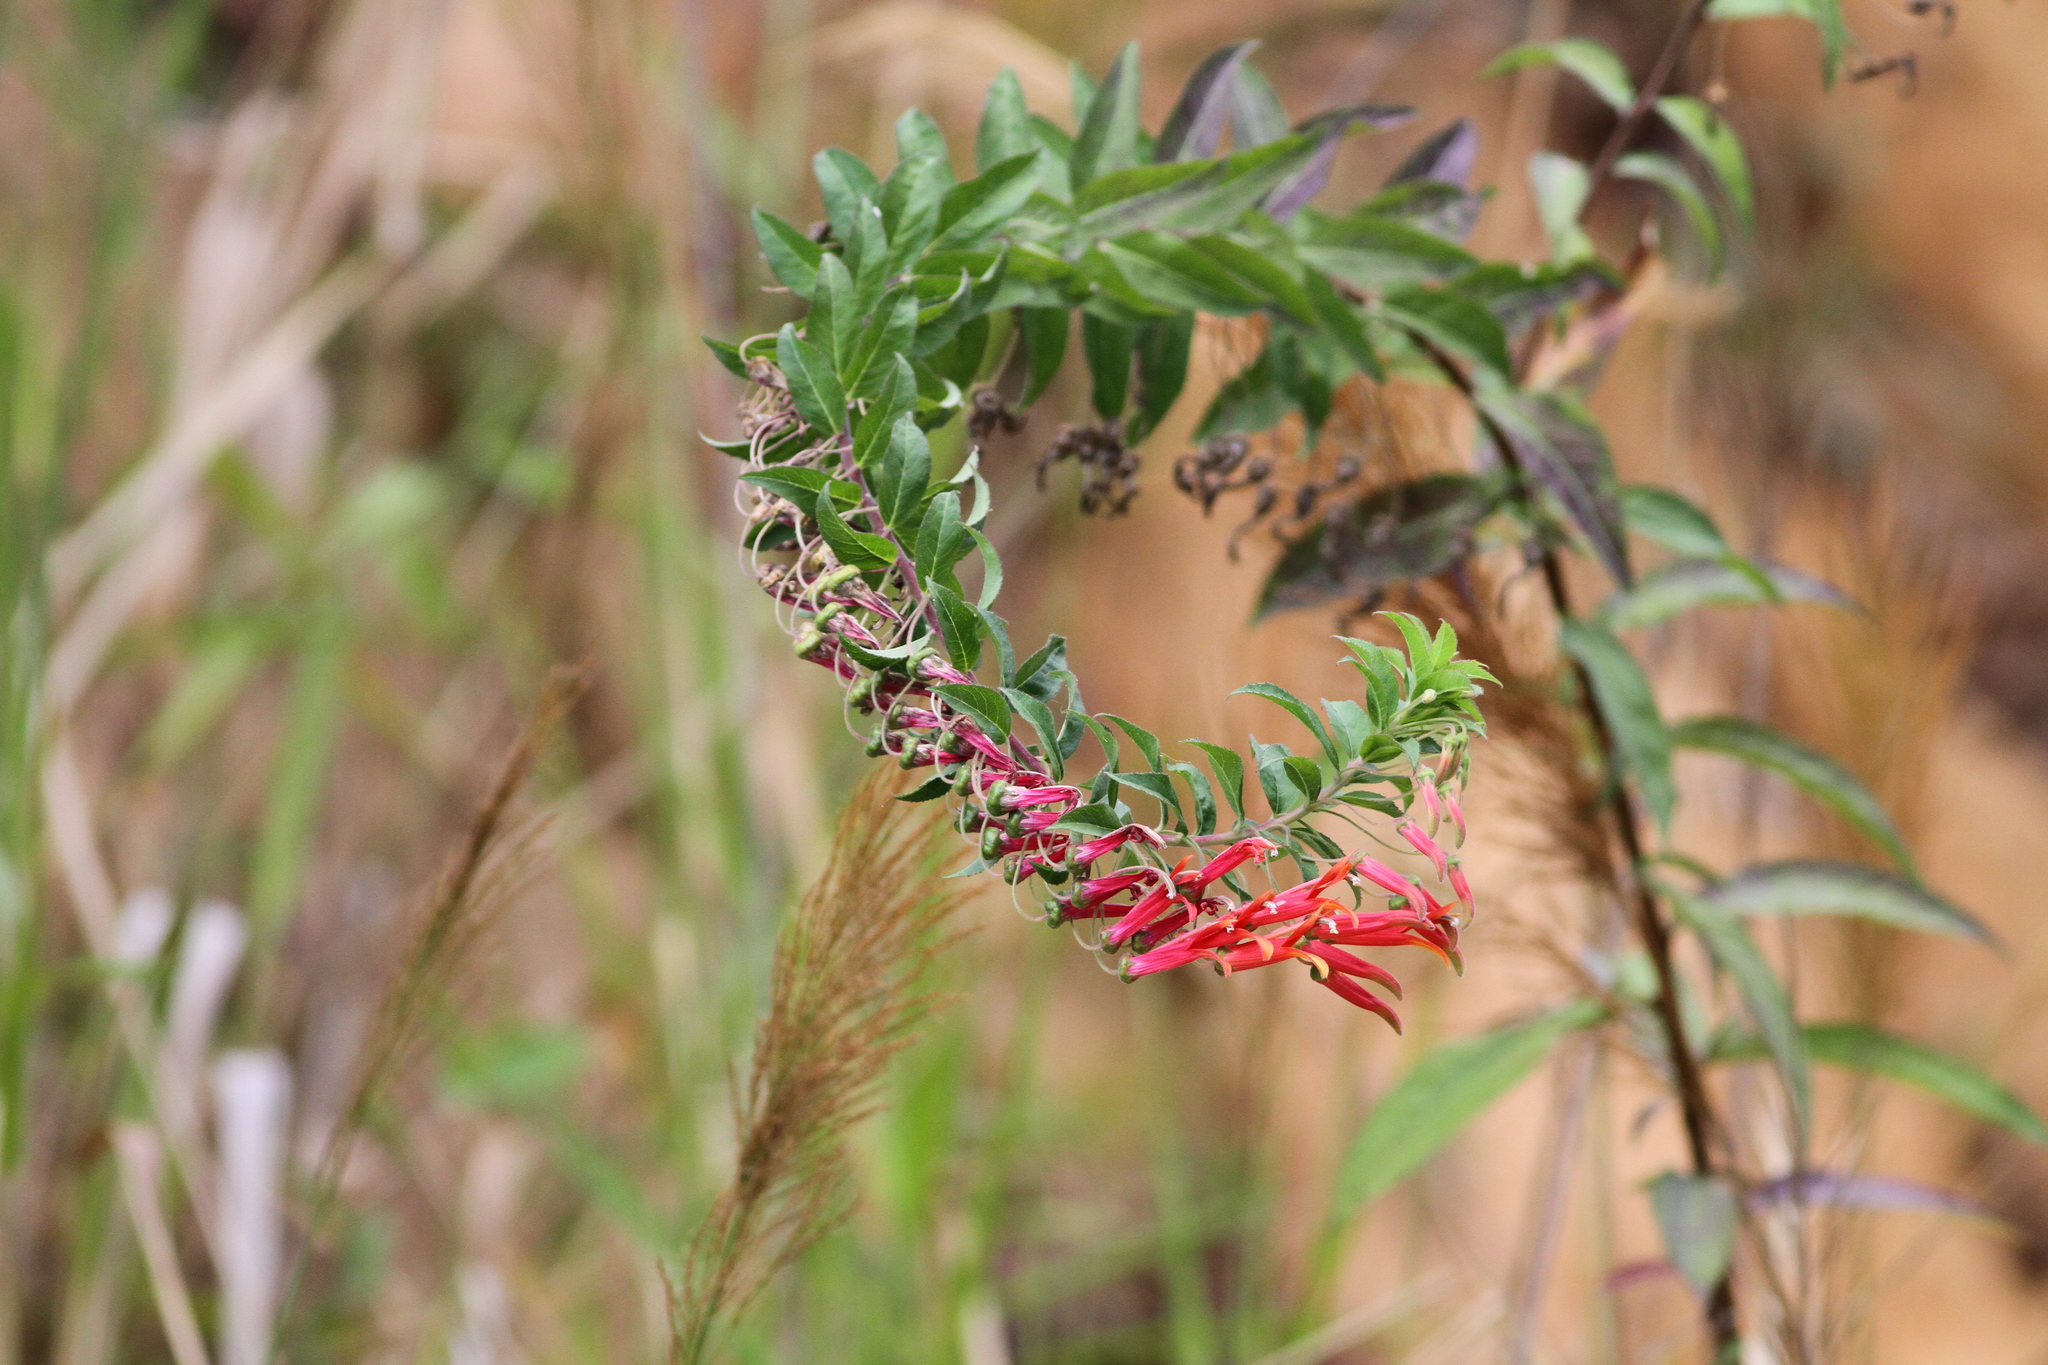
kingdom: Plantae
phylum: Tracheophyta
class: Magnoliopsida
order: Asterales
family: Campanulaceae
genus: Lobelia
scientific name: Lobelia laxiflora
